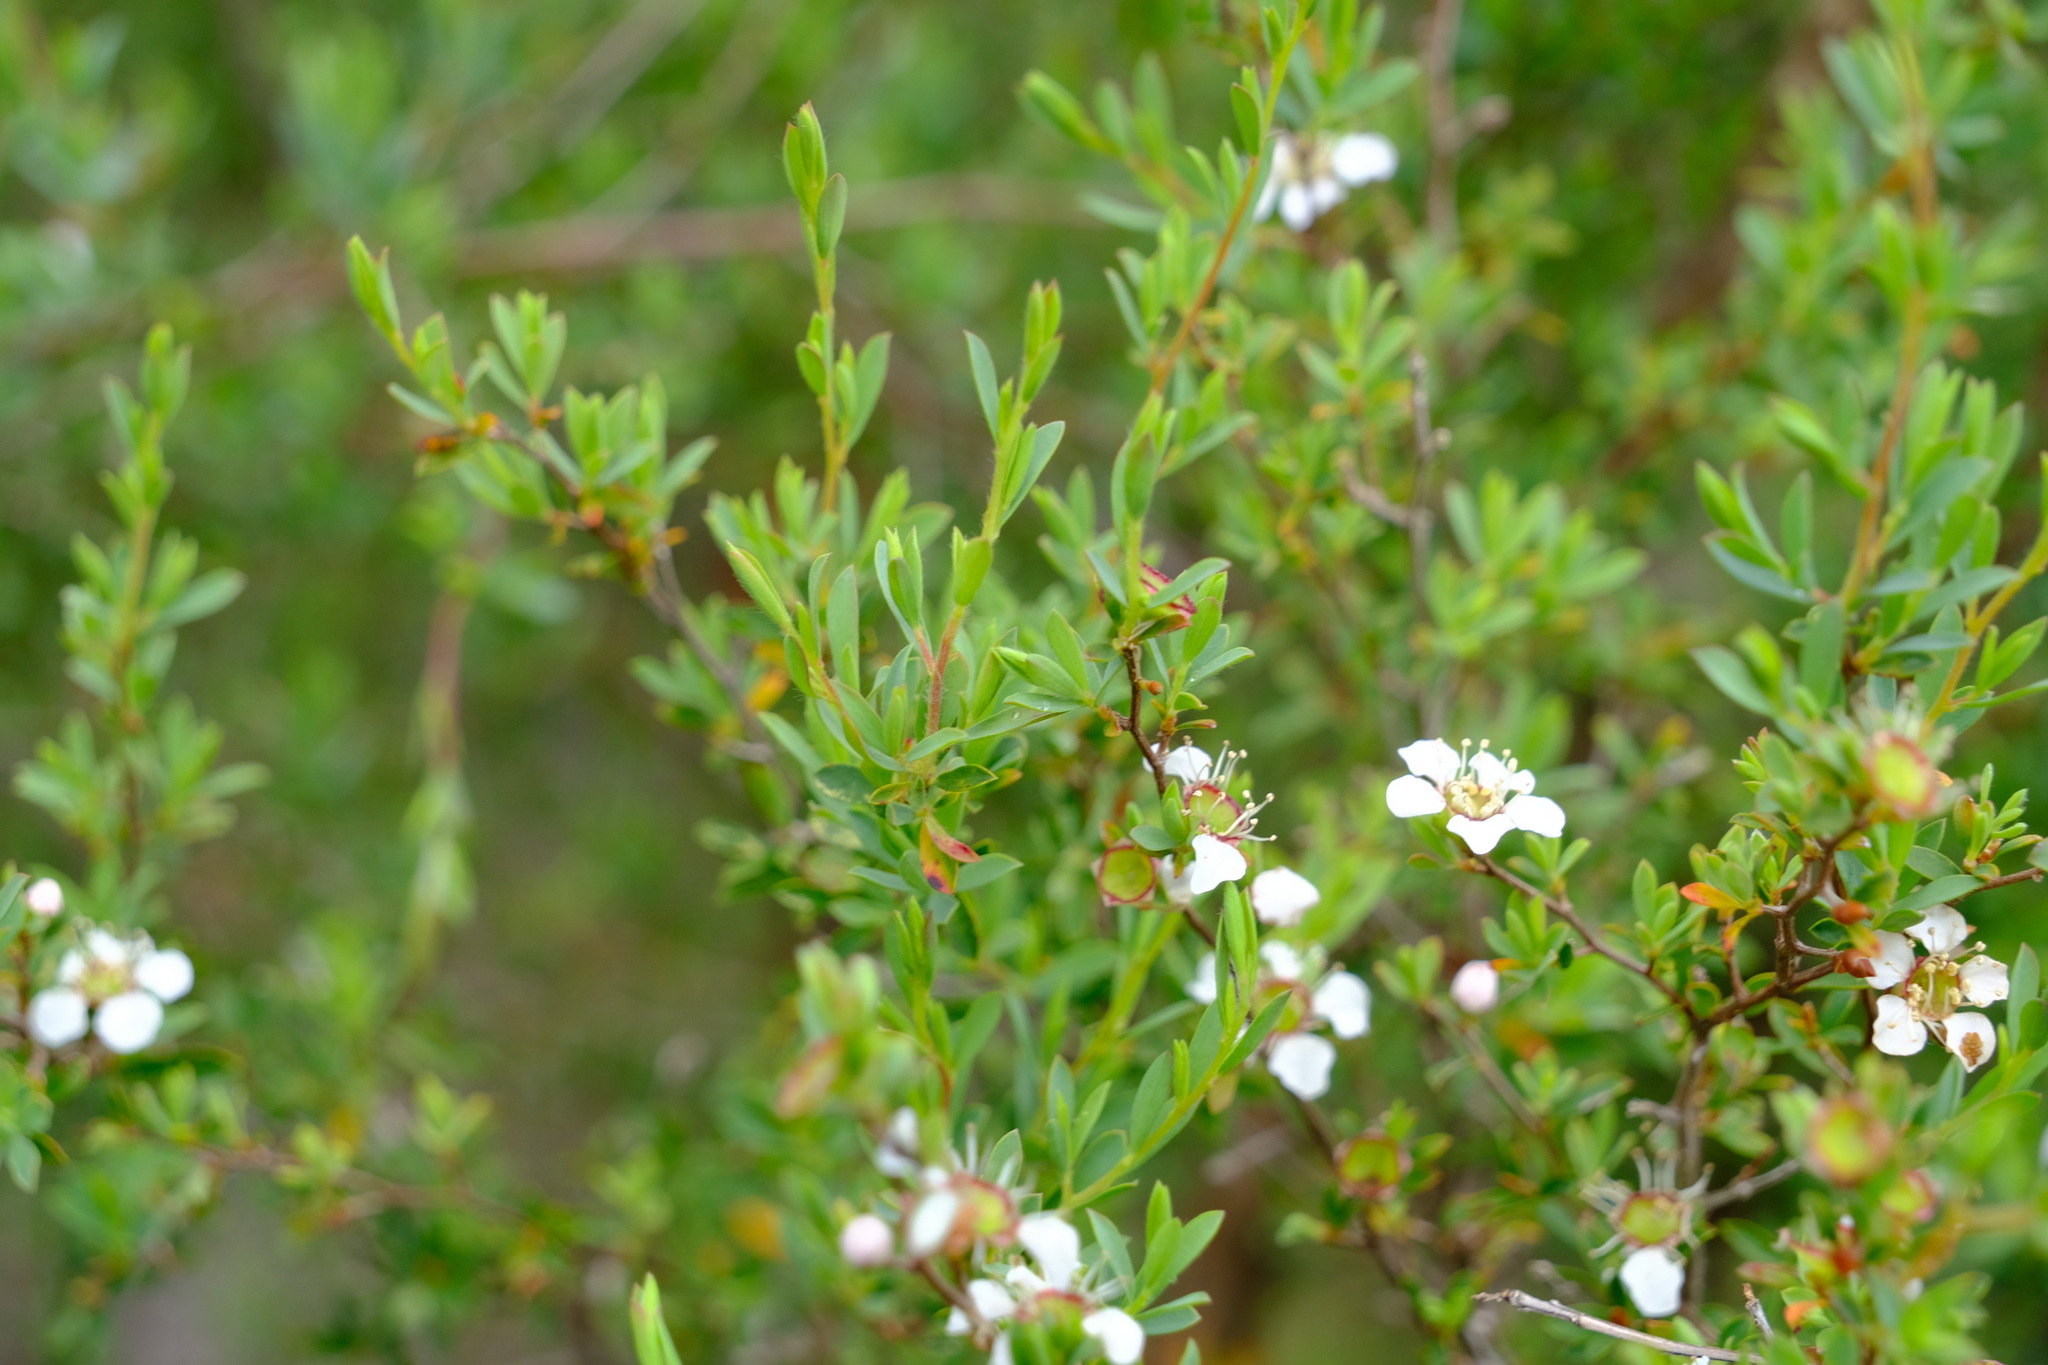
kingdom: Plantae
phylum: Tracheophyta
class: Magnoliopsida
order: Myrtales
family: Myrtaceae
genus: Leptospermum
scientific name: Leptospermum myrsinoides
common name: Heath teatree
